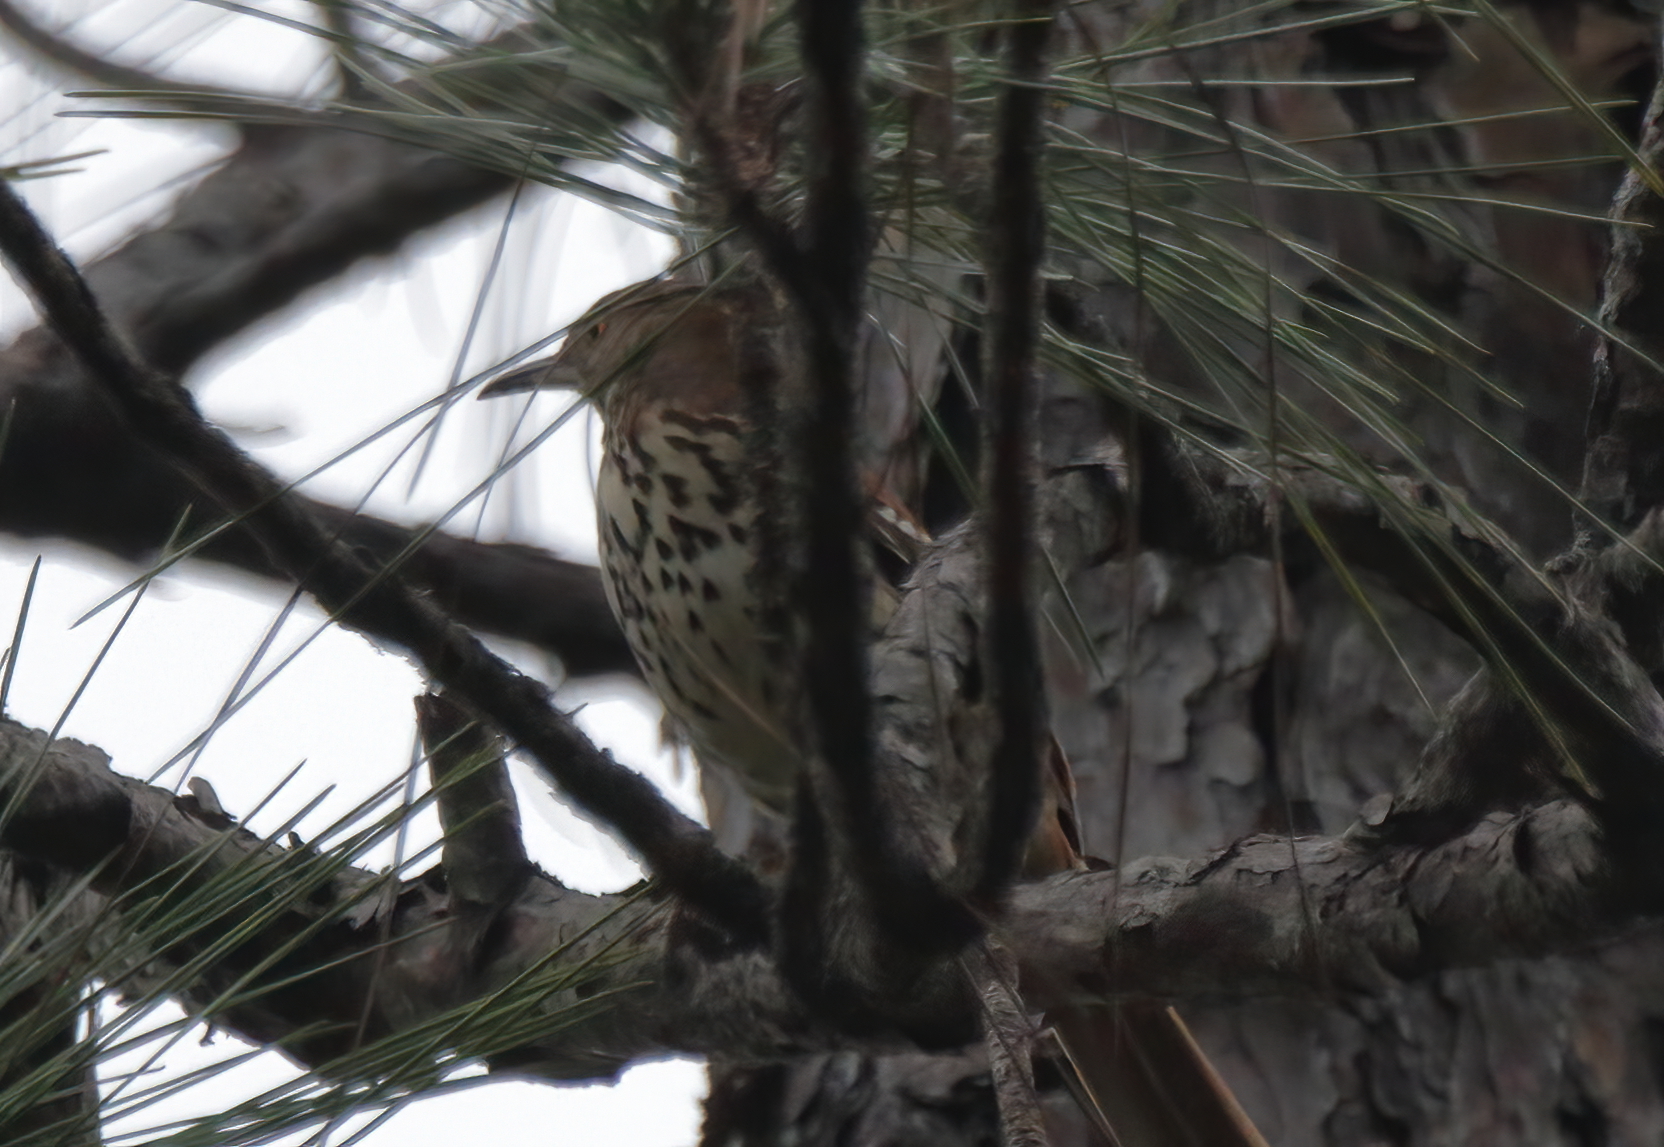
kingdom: Animalia
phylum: Chordata
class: Aves
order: Passeriformes
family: Mimidae
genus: Toxostoma
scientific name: Toxostoma rufum
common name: Brown thrasher
